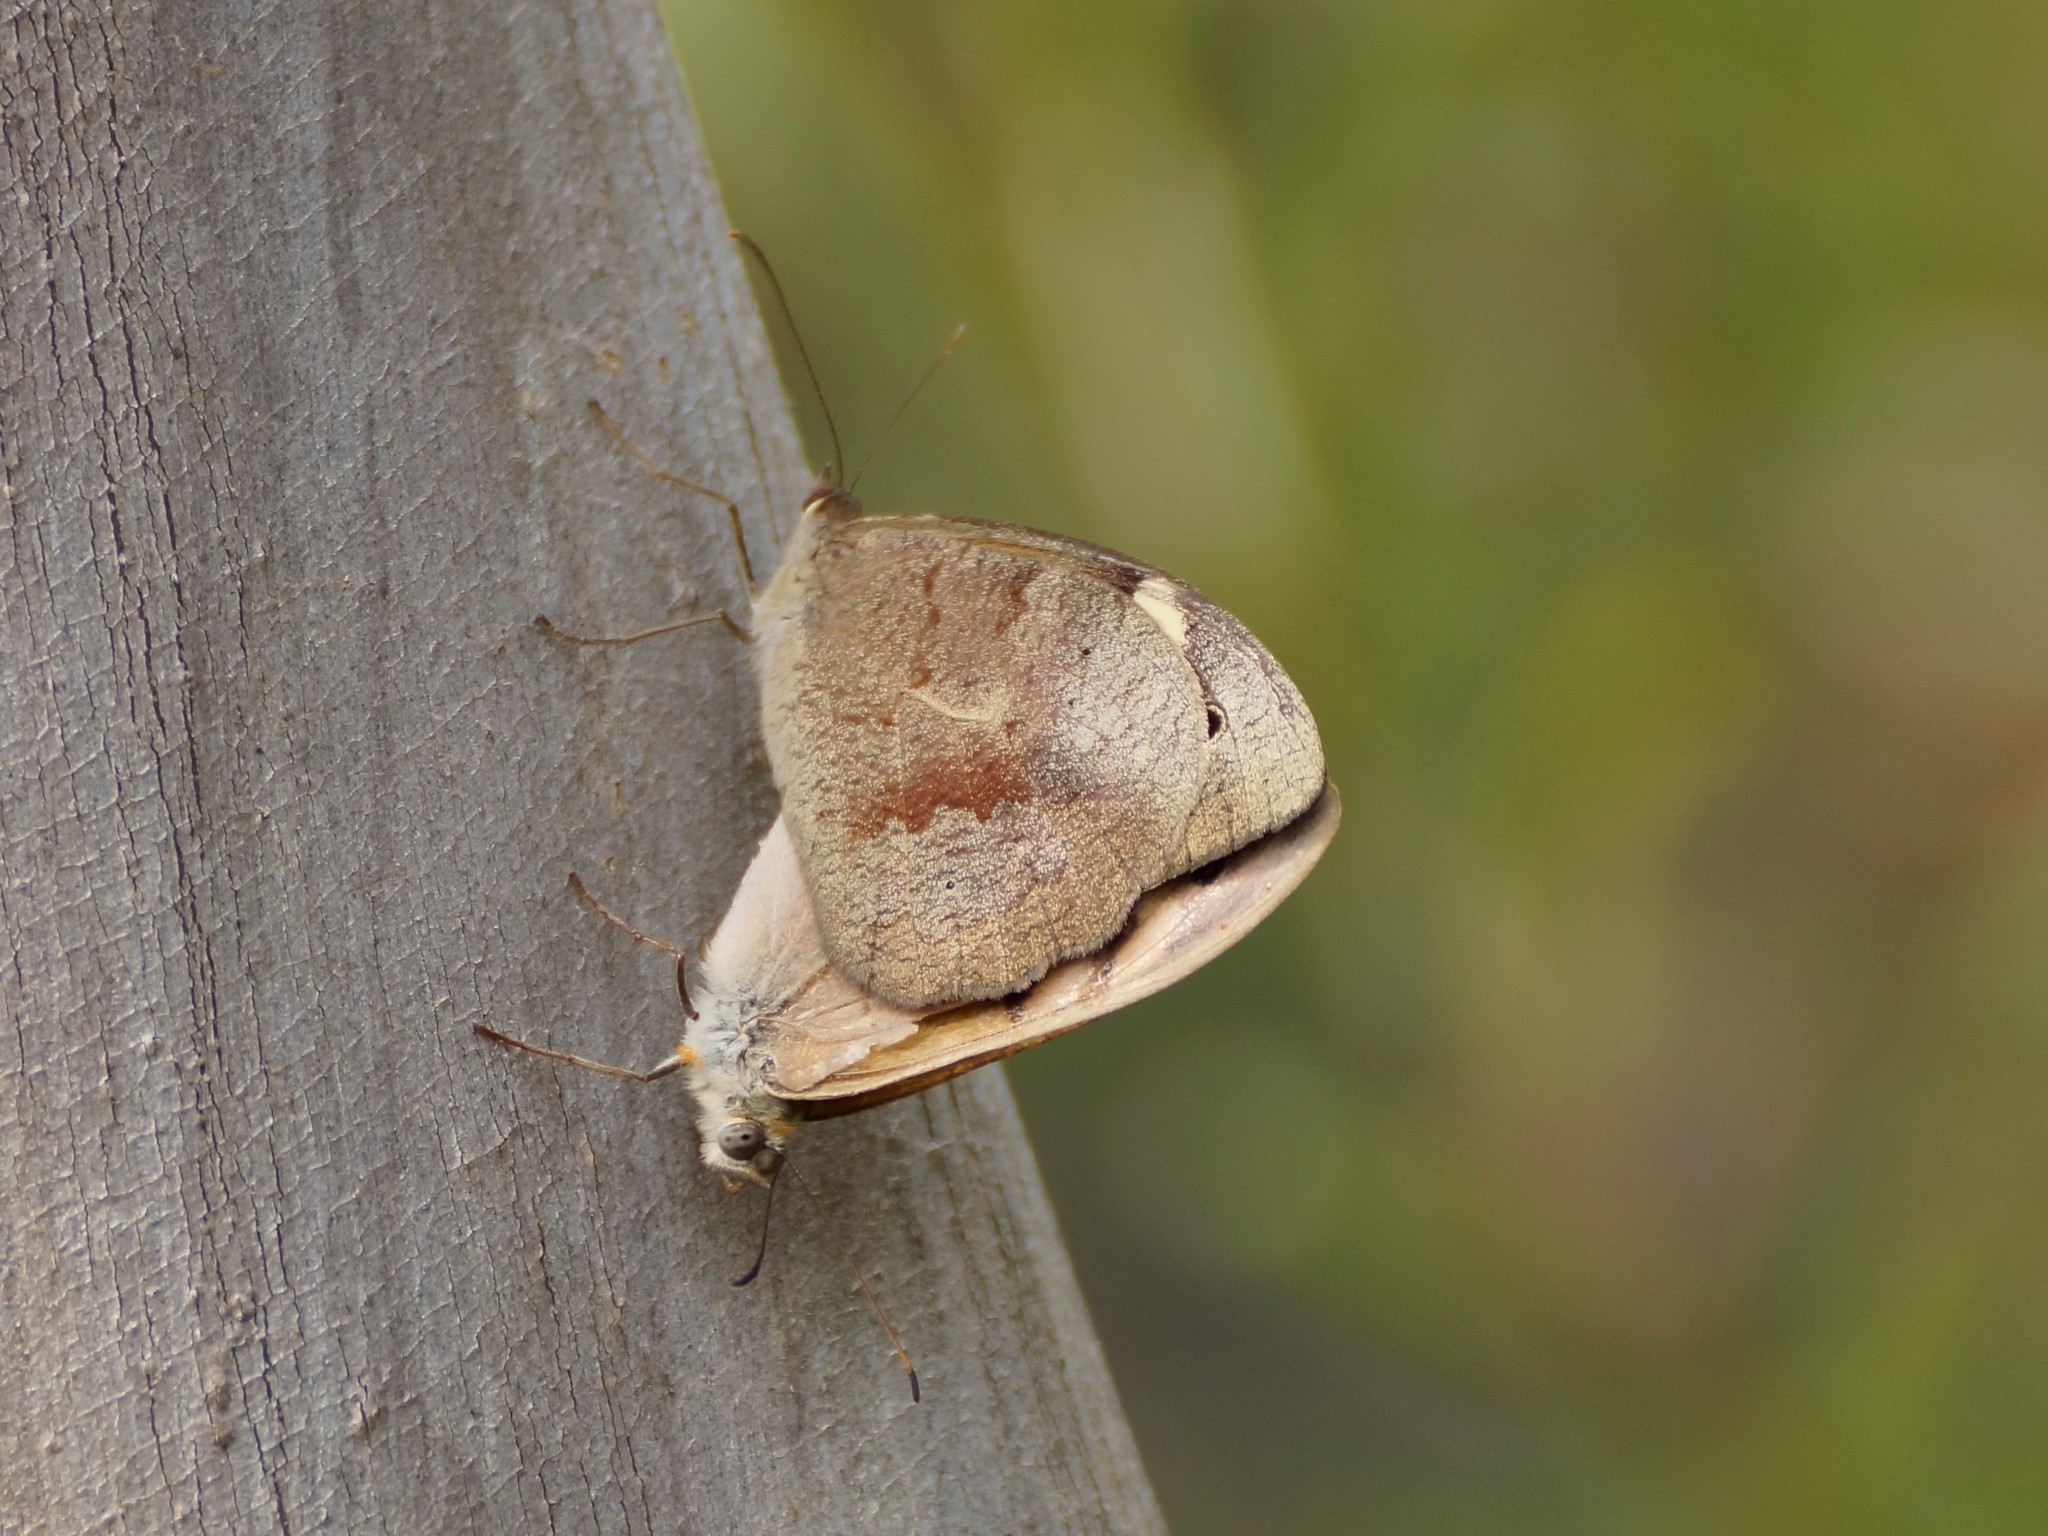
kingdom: Animalia
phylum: Arthropoda
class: Insecta
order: Lepidoptera
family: Nymphalidae
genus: Heteronympha
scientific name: Heteronympha merope
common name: Common brown
